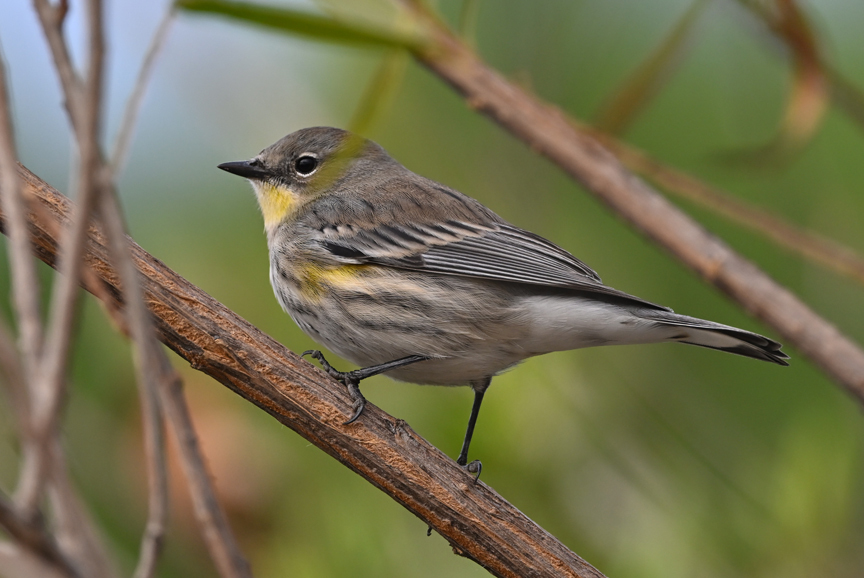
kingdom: Animalia
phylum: Chordata
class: Aves
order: Passeriformes
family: Parulidae
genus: Setophaga
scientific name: Setophaga coronata
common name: Myrtle warbler
